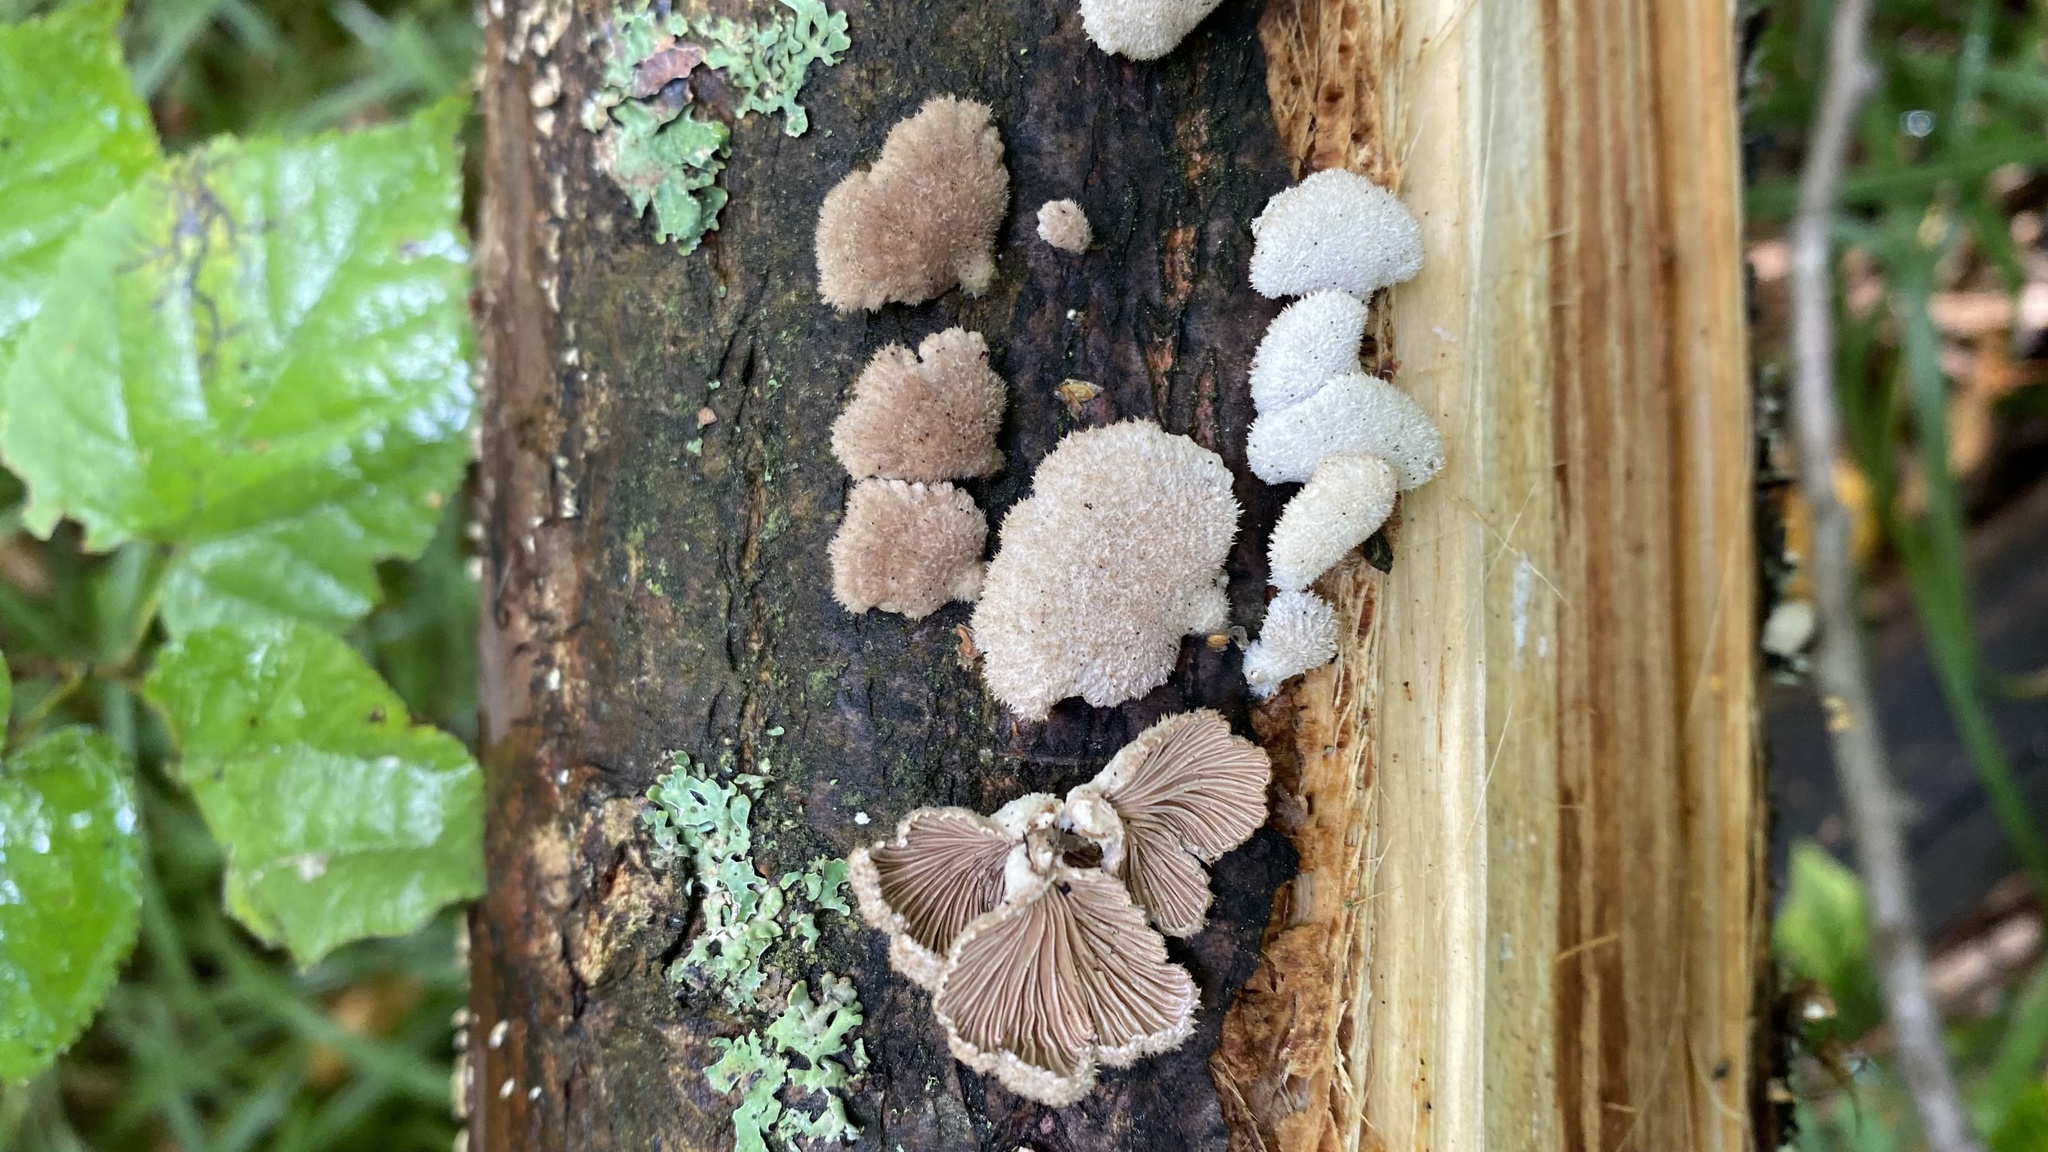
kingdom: Fungi
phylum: Basidiomycota
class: Agaricomycetes
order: Agaricales
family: Schizophyllaceae
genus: Schizophyllum
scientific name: Schizophyllum commune
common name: Common porecrust
